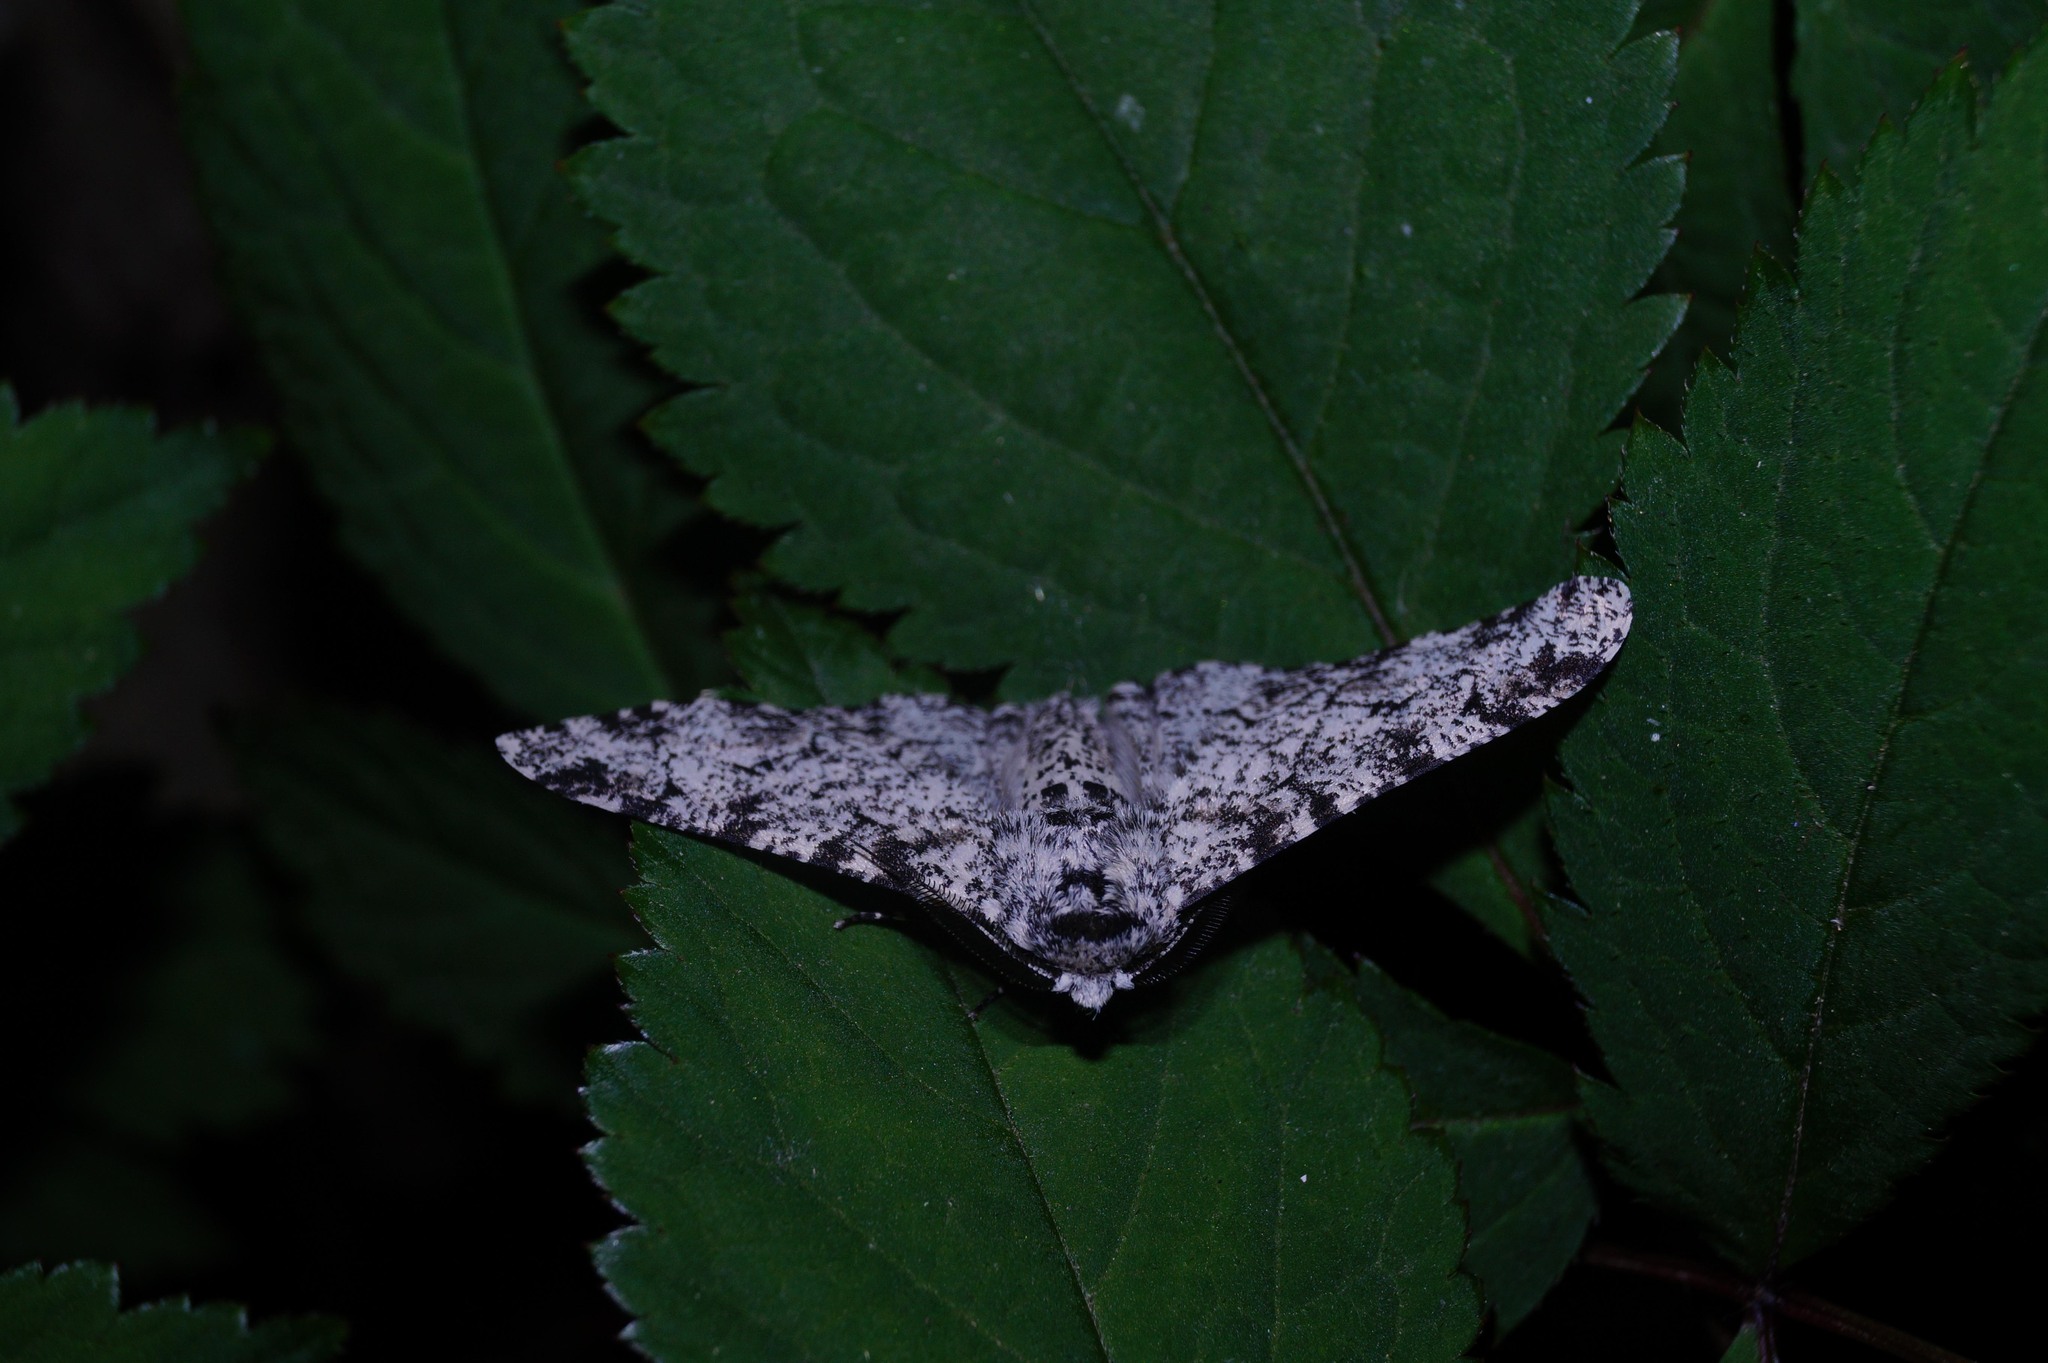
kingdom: Animalia
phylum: Arthropoda
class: Insecta
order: Lepidoptera
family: Geometridae
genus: Biston
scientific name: Biston betularia
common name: Peppered moth
